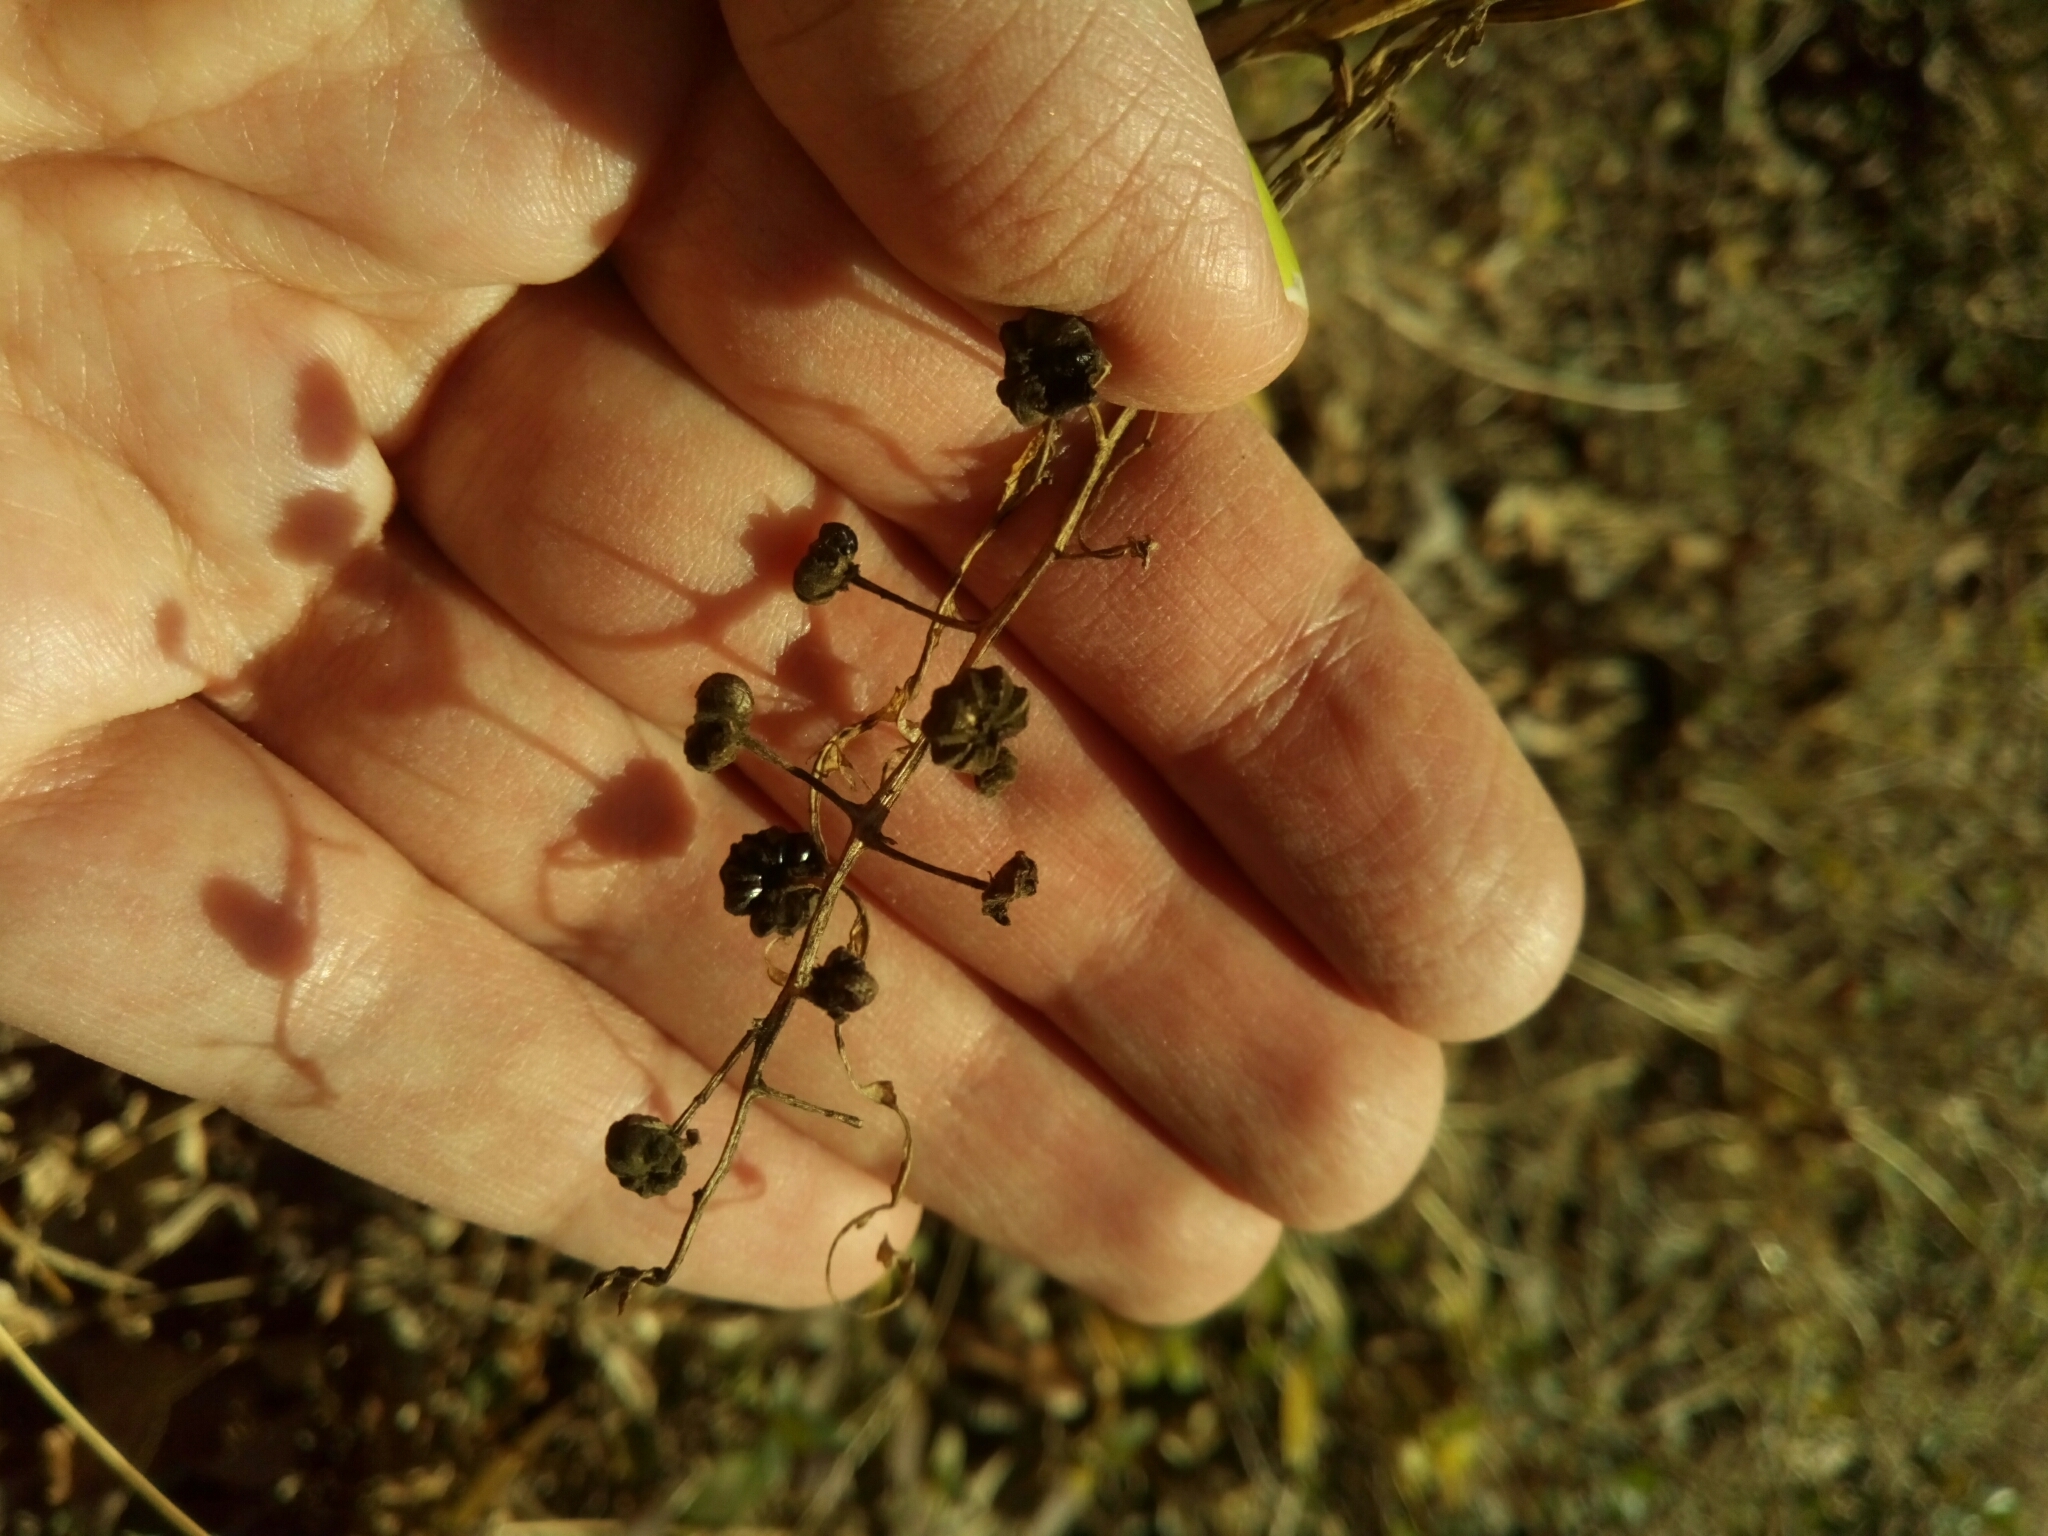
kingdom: Plantae
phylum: Tracheophyta
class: Magnoliopsida
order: Caryophyllales
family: Phytolaccaceae
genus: Phytolacca
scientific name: Phytolacca americana
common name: American pokeweed
